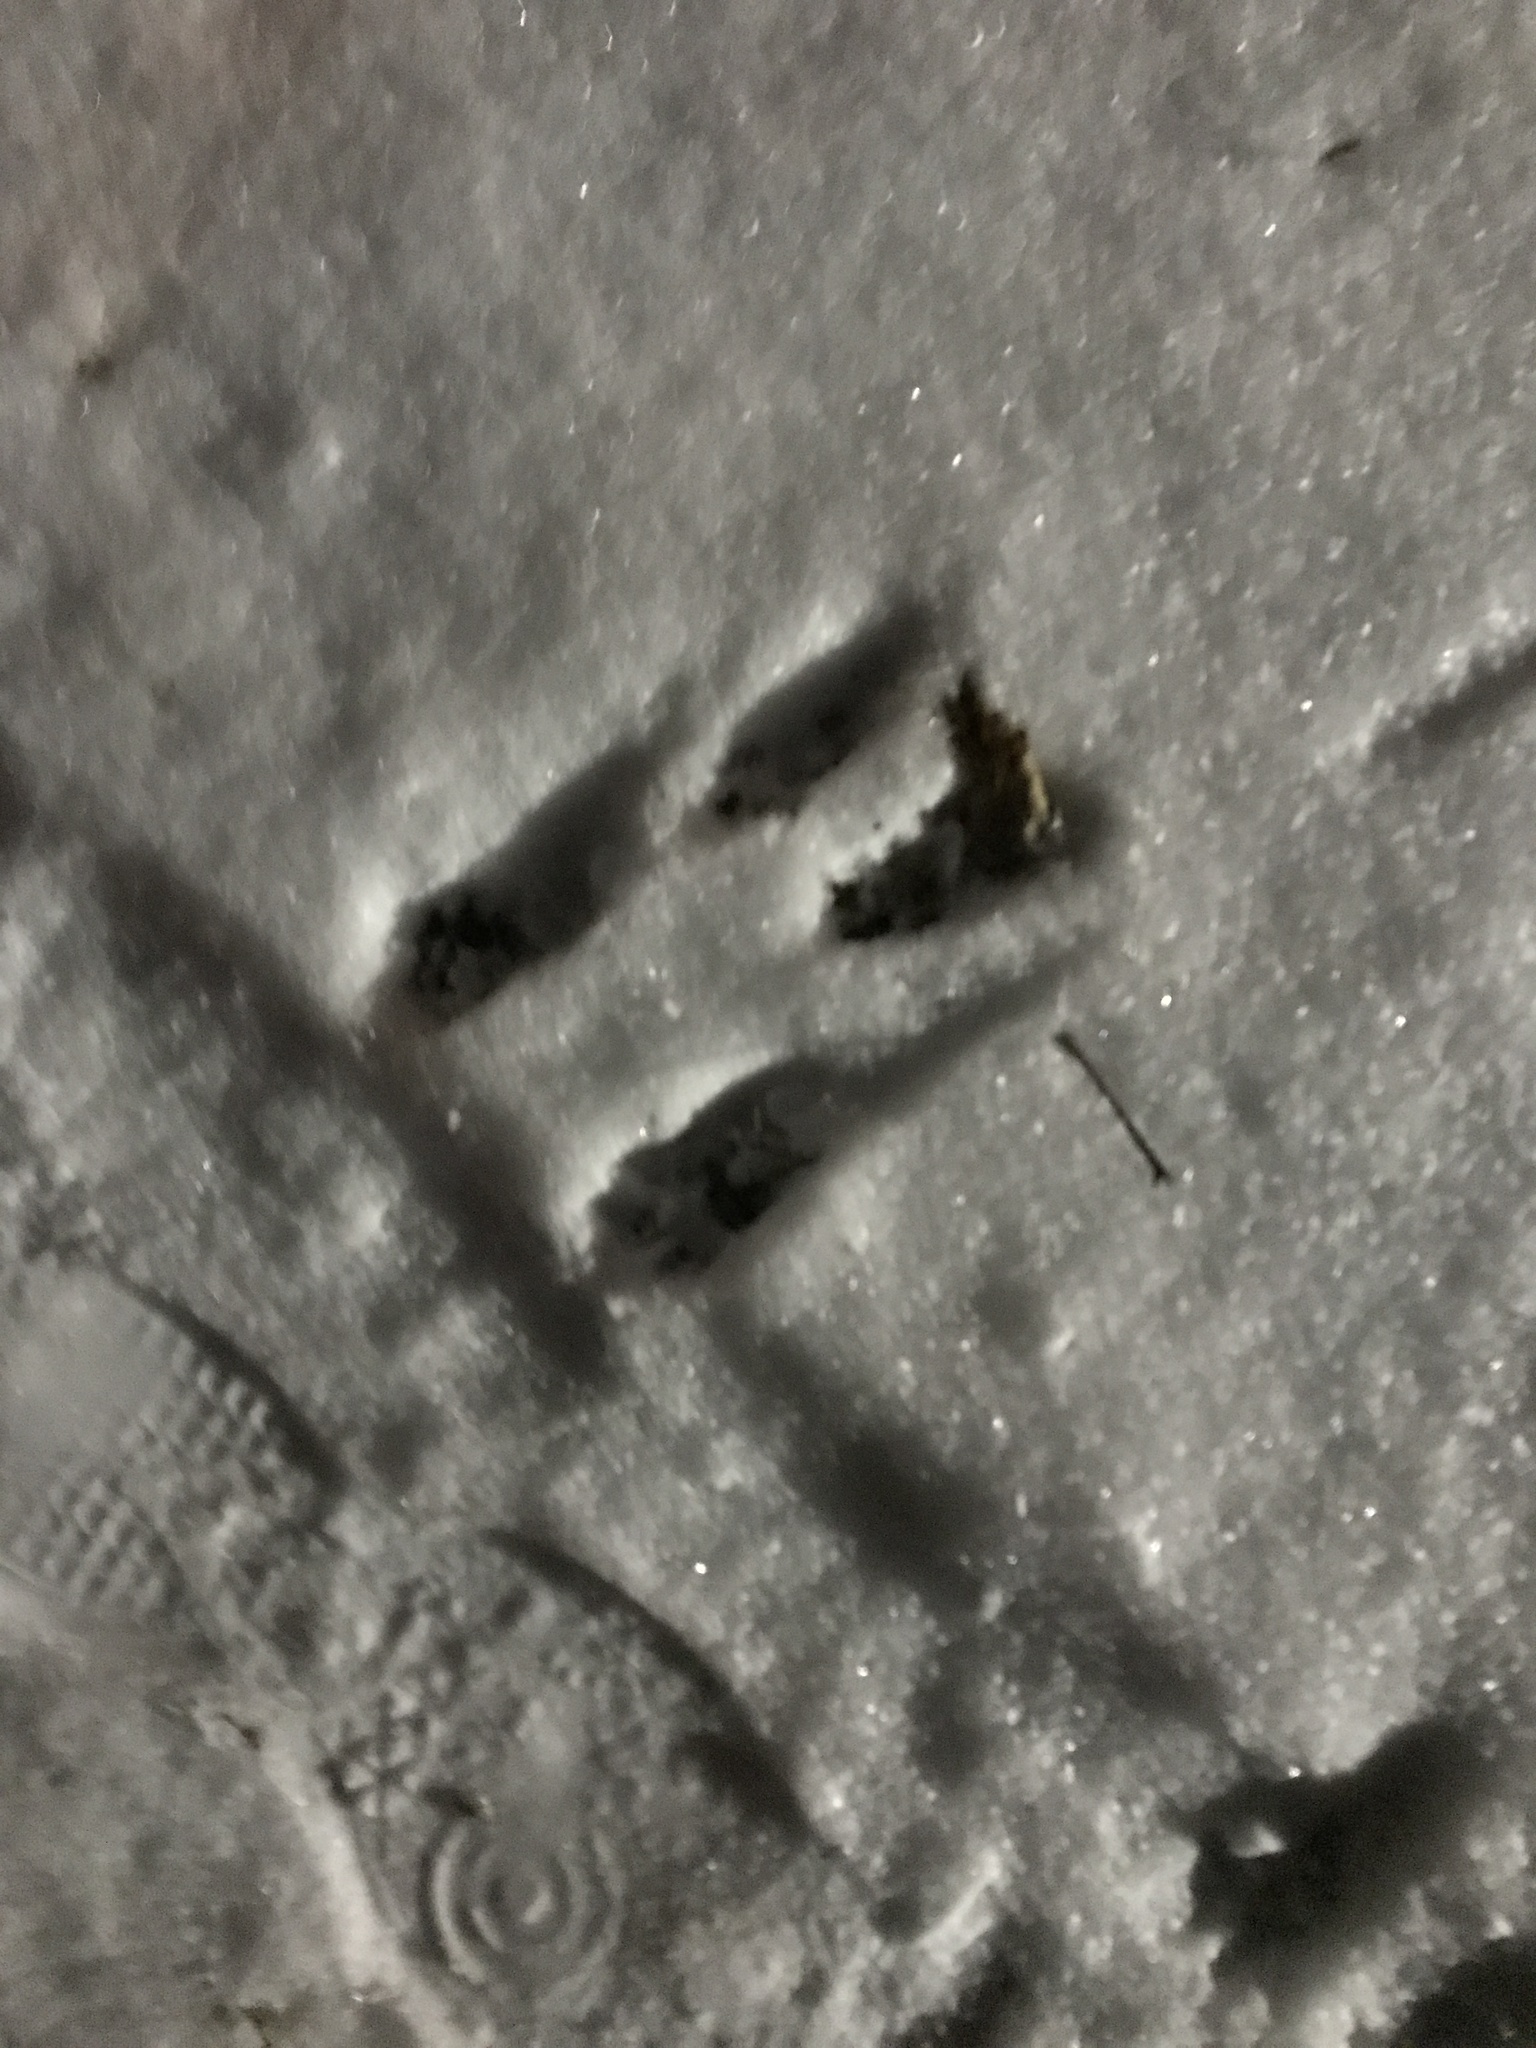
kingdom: Animalia
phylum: Chordata
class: Mammalia
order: Lagomorpha
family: Leporidae
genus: Sylvilagus
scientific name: Sylvilagus floridanus
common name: Eastern cottontail
